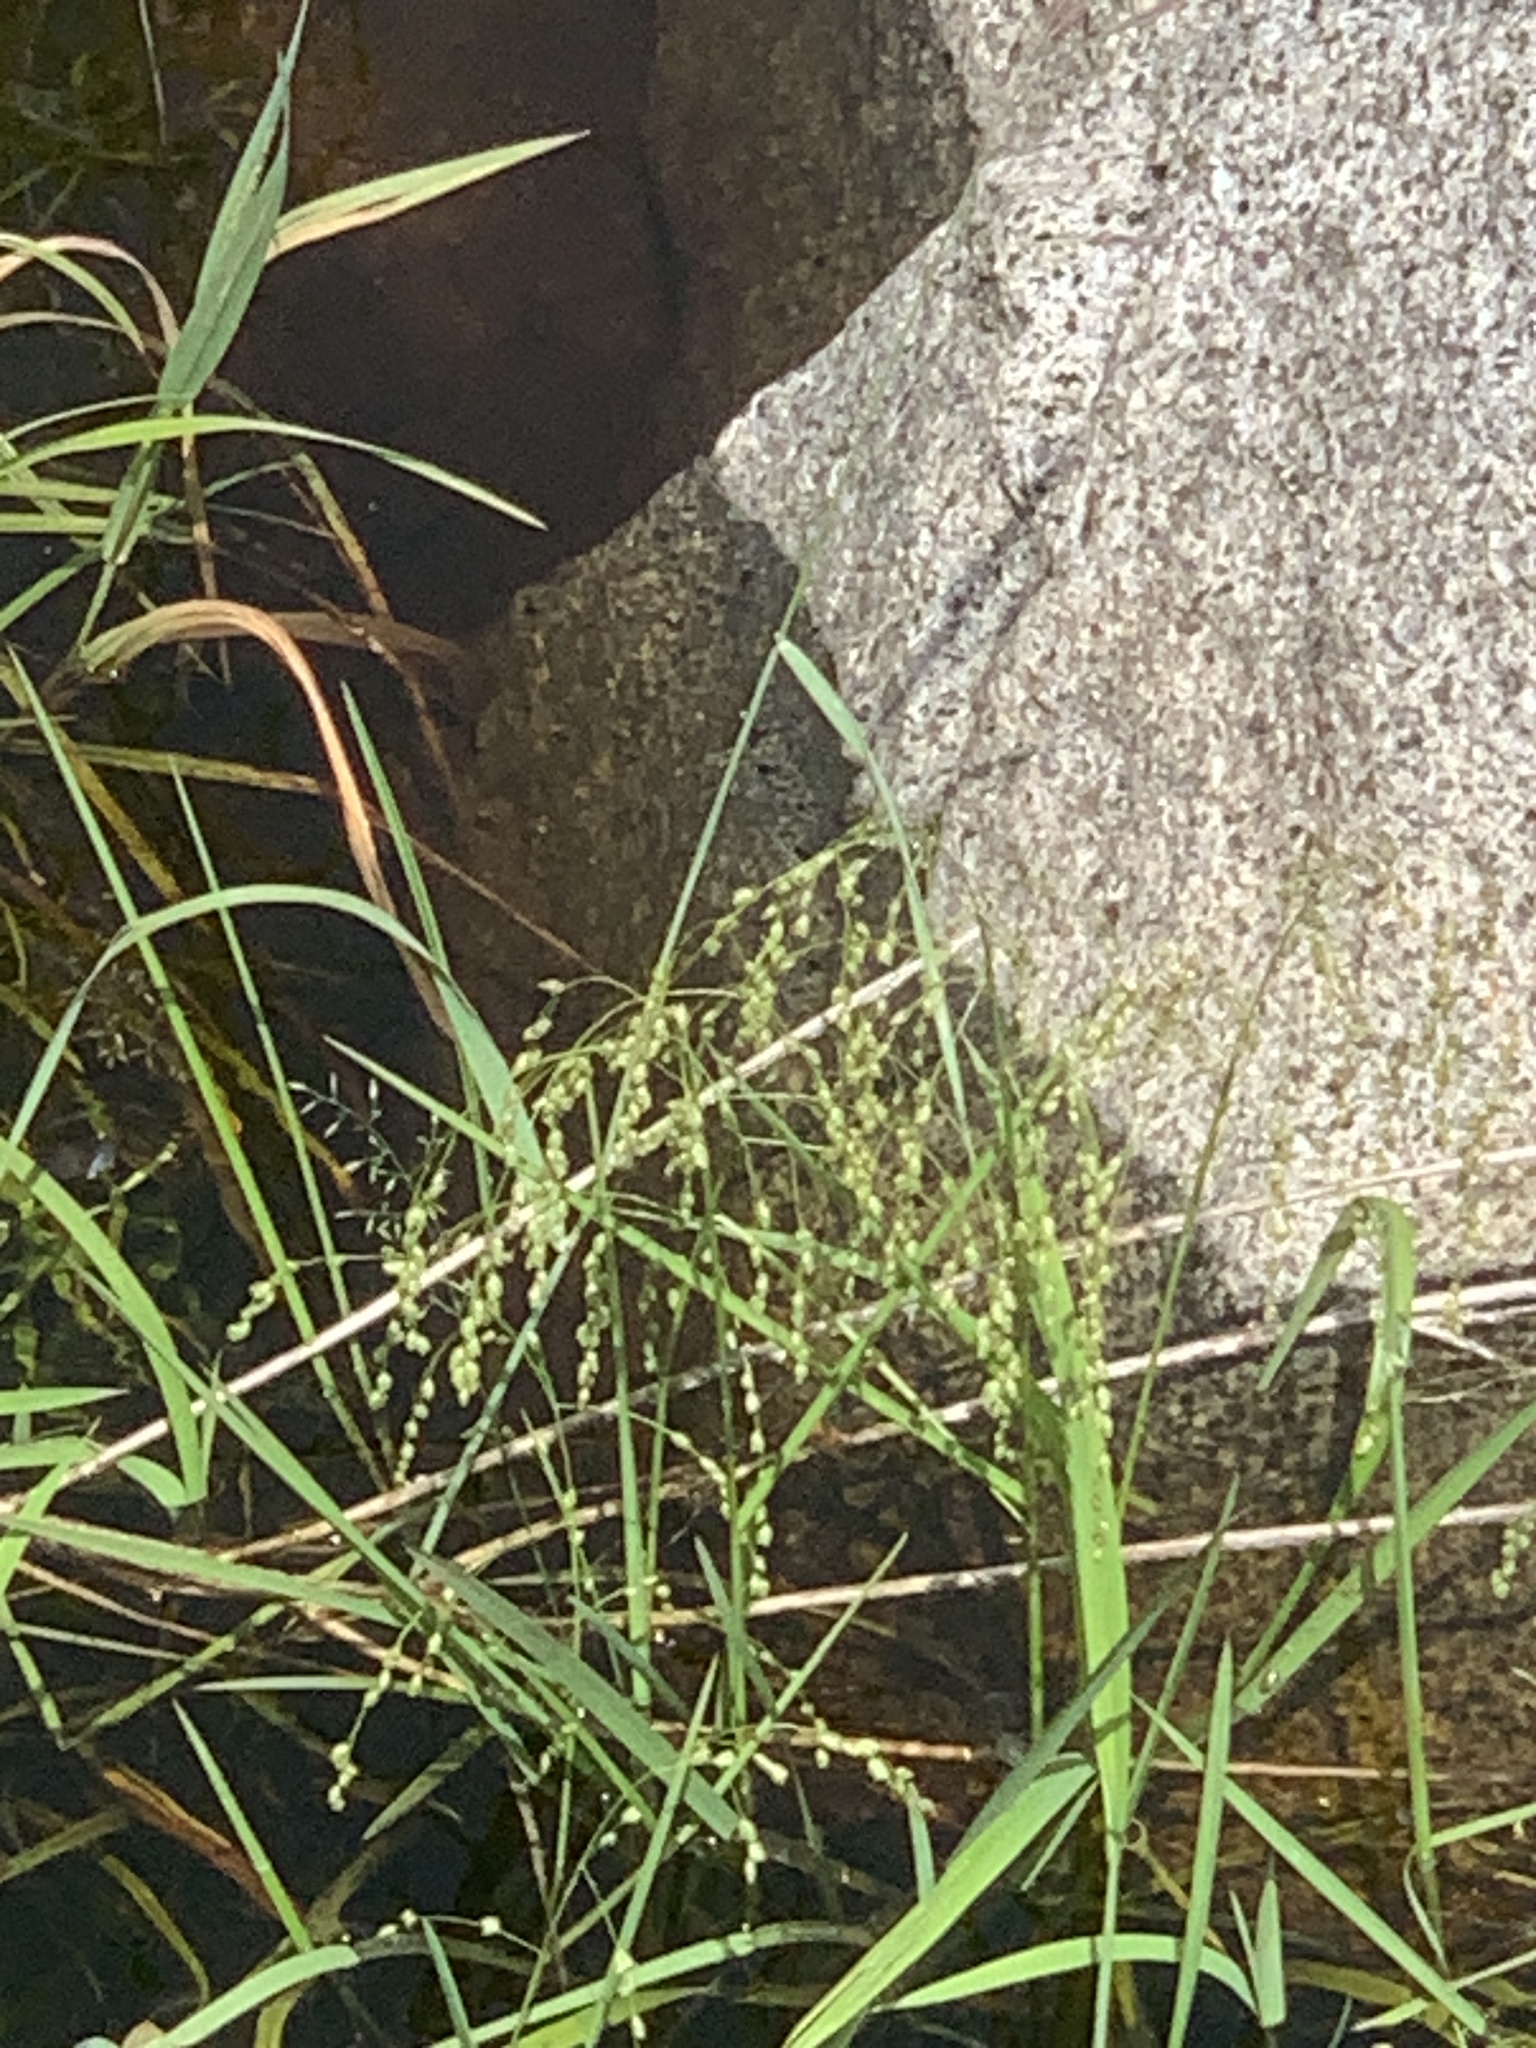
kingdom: Plantae
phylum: Tracheophyta
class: Liliopsida
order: Poales
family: Poaceae
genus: Glyceria
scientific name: Glyceria canadensis
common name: Canada mannagrass
